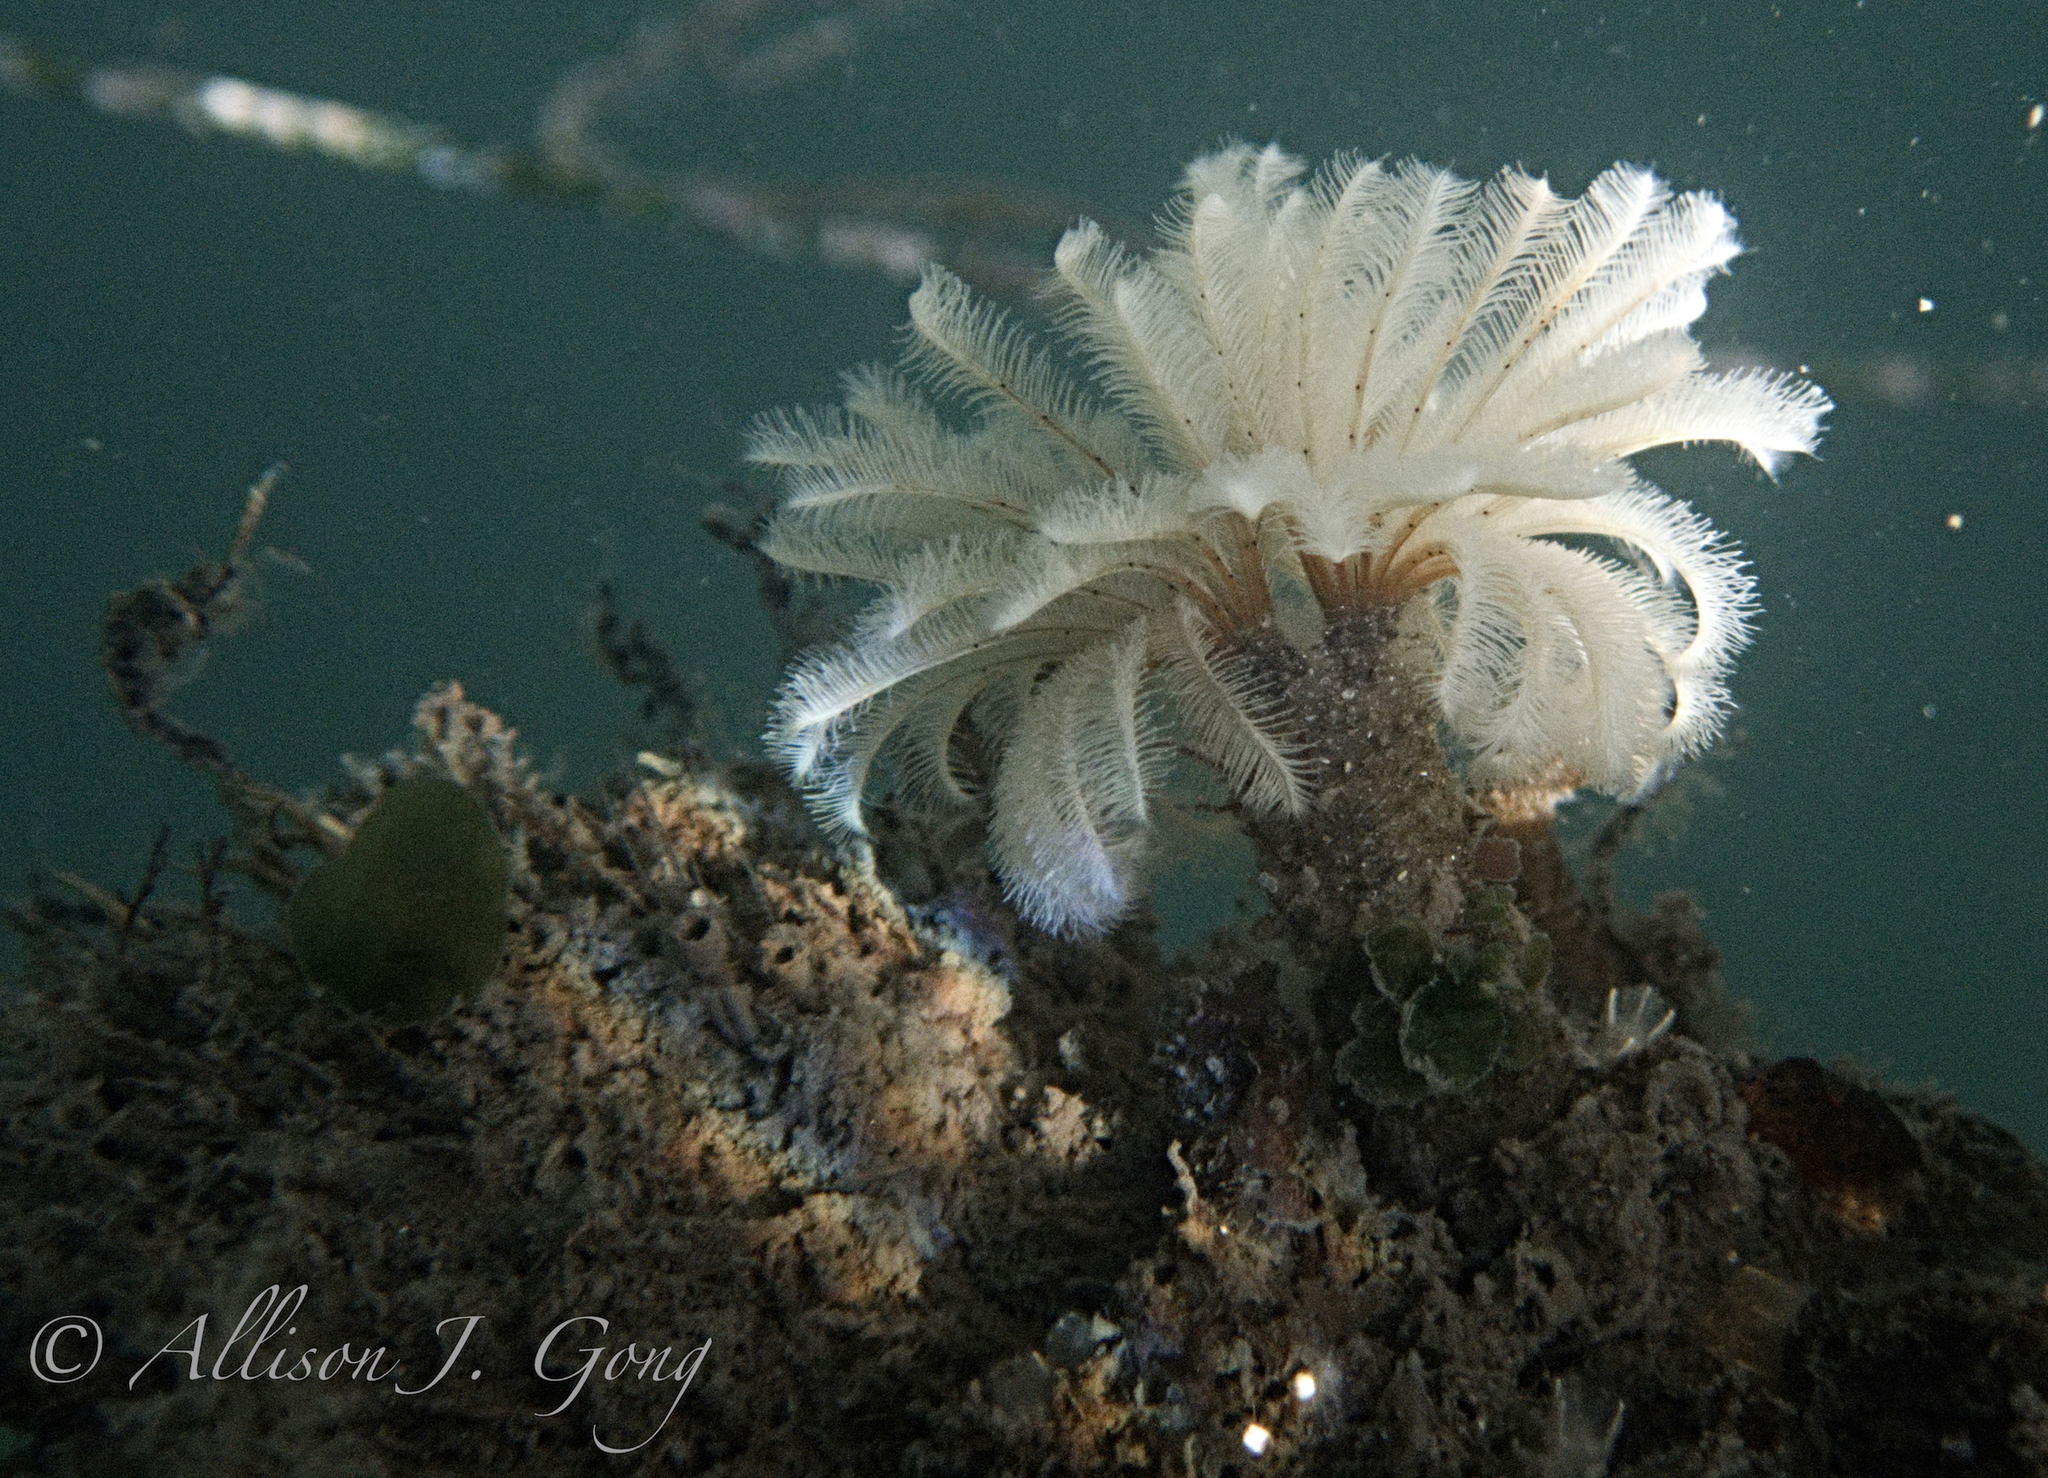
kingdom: Animalia
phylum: Annelida
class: Polychaeta
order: Sabellida
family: Sabellidae
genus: Eudistylia
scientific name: Eudistylia polymorpha
